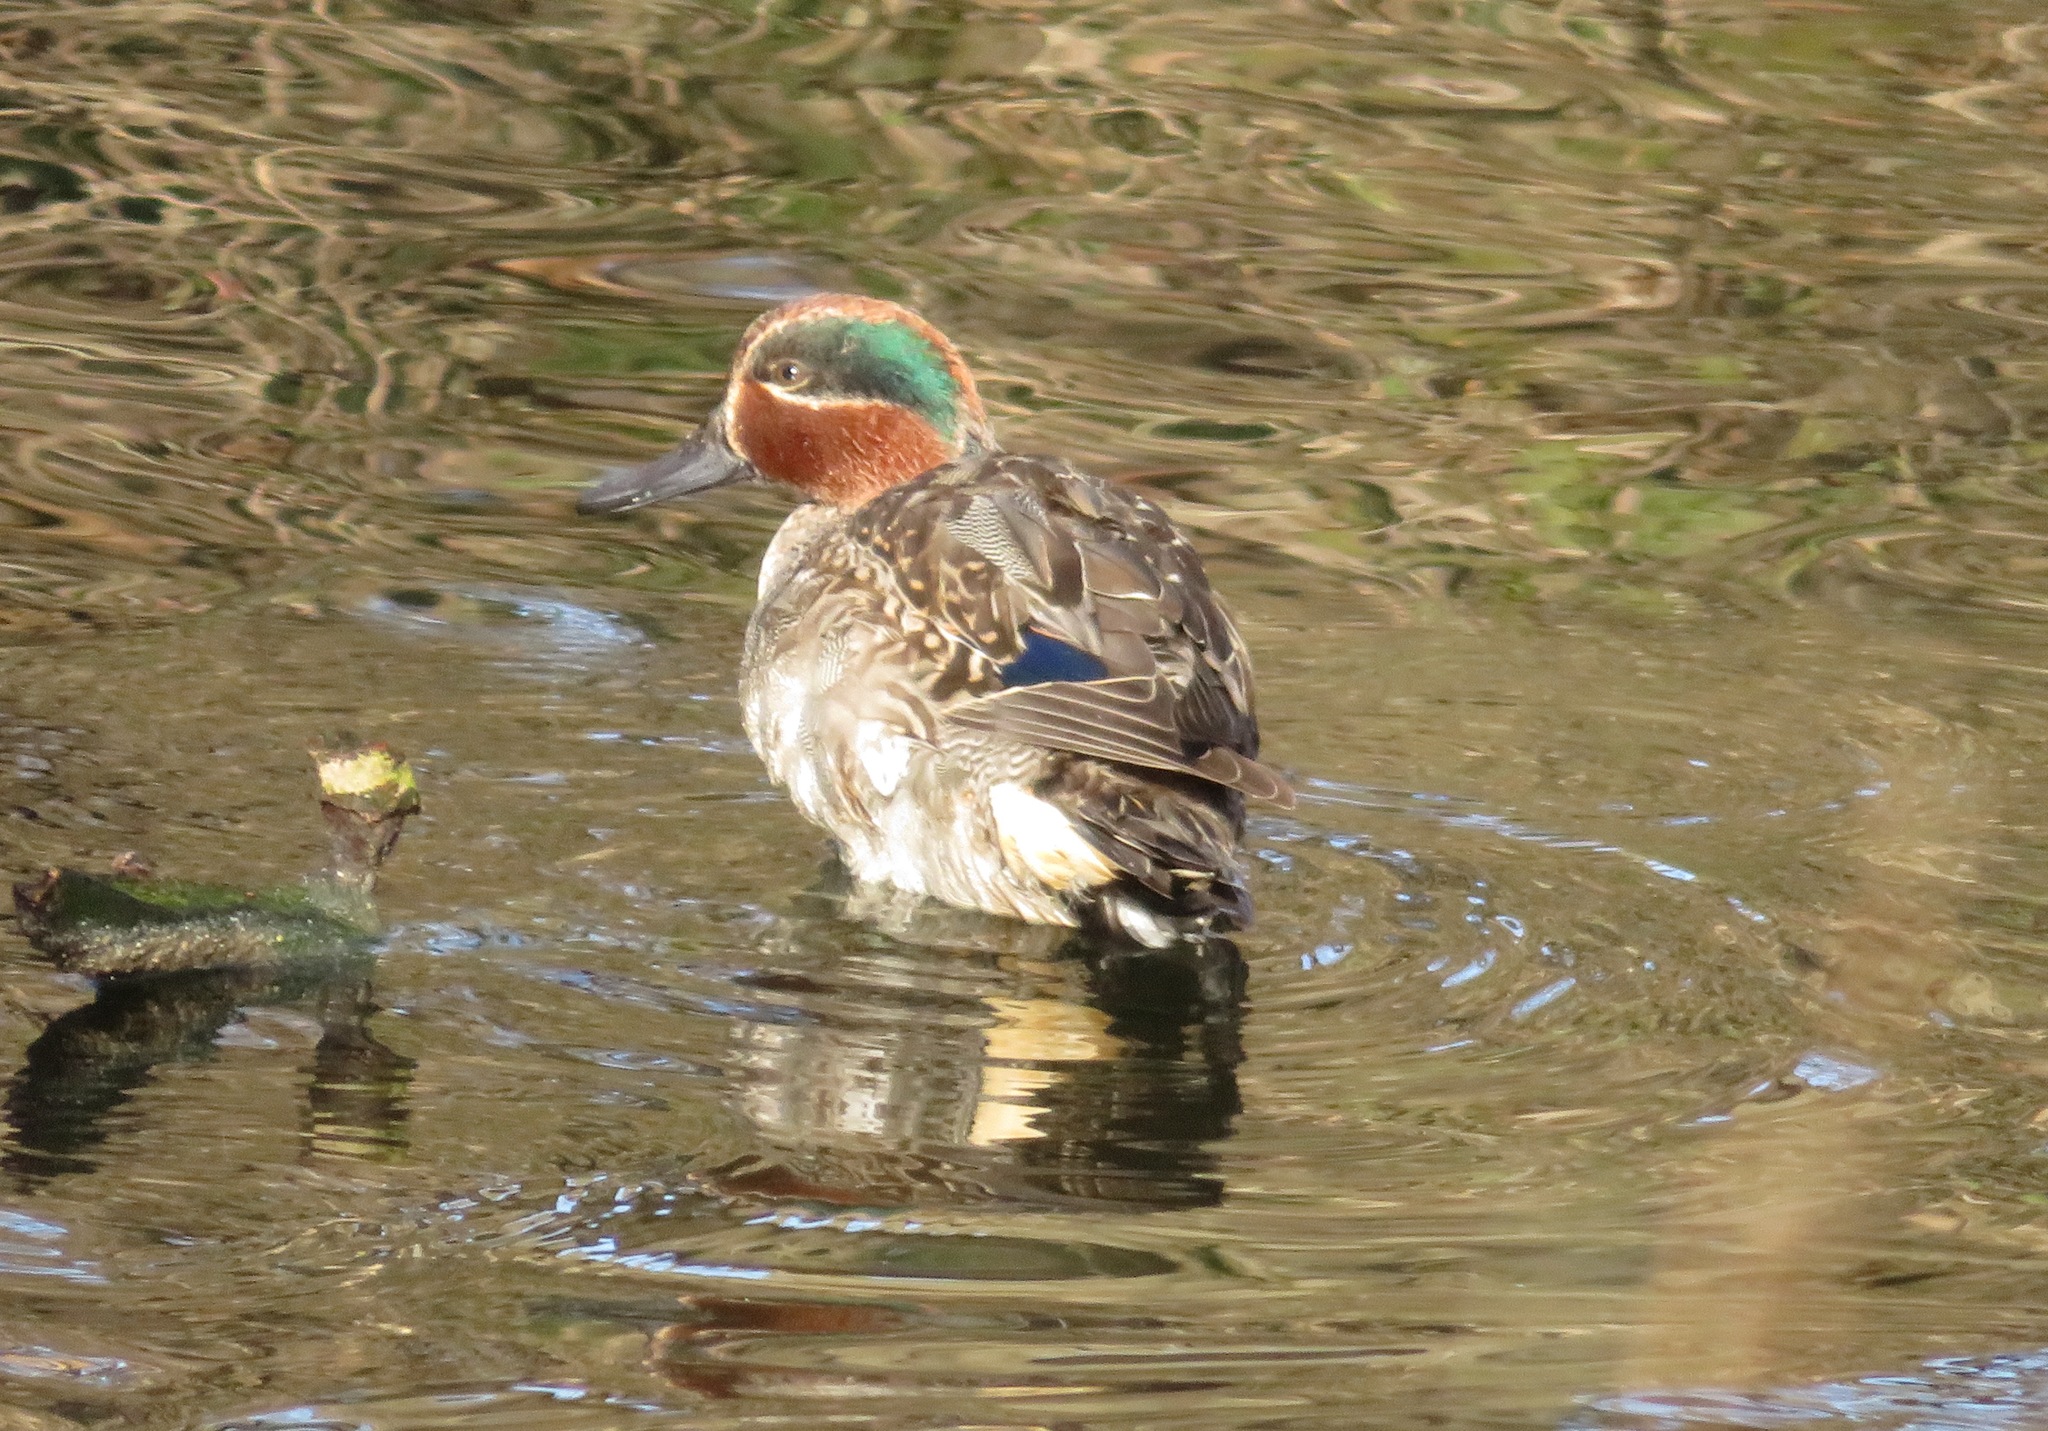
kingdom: Animalia
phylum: Chordata
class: Aves
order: Anseriformes
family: Anatidae
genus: Anas
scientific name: Anas crecca
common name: Eurasian teal
